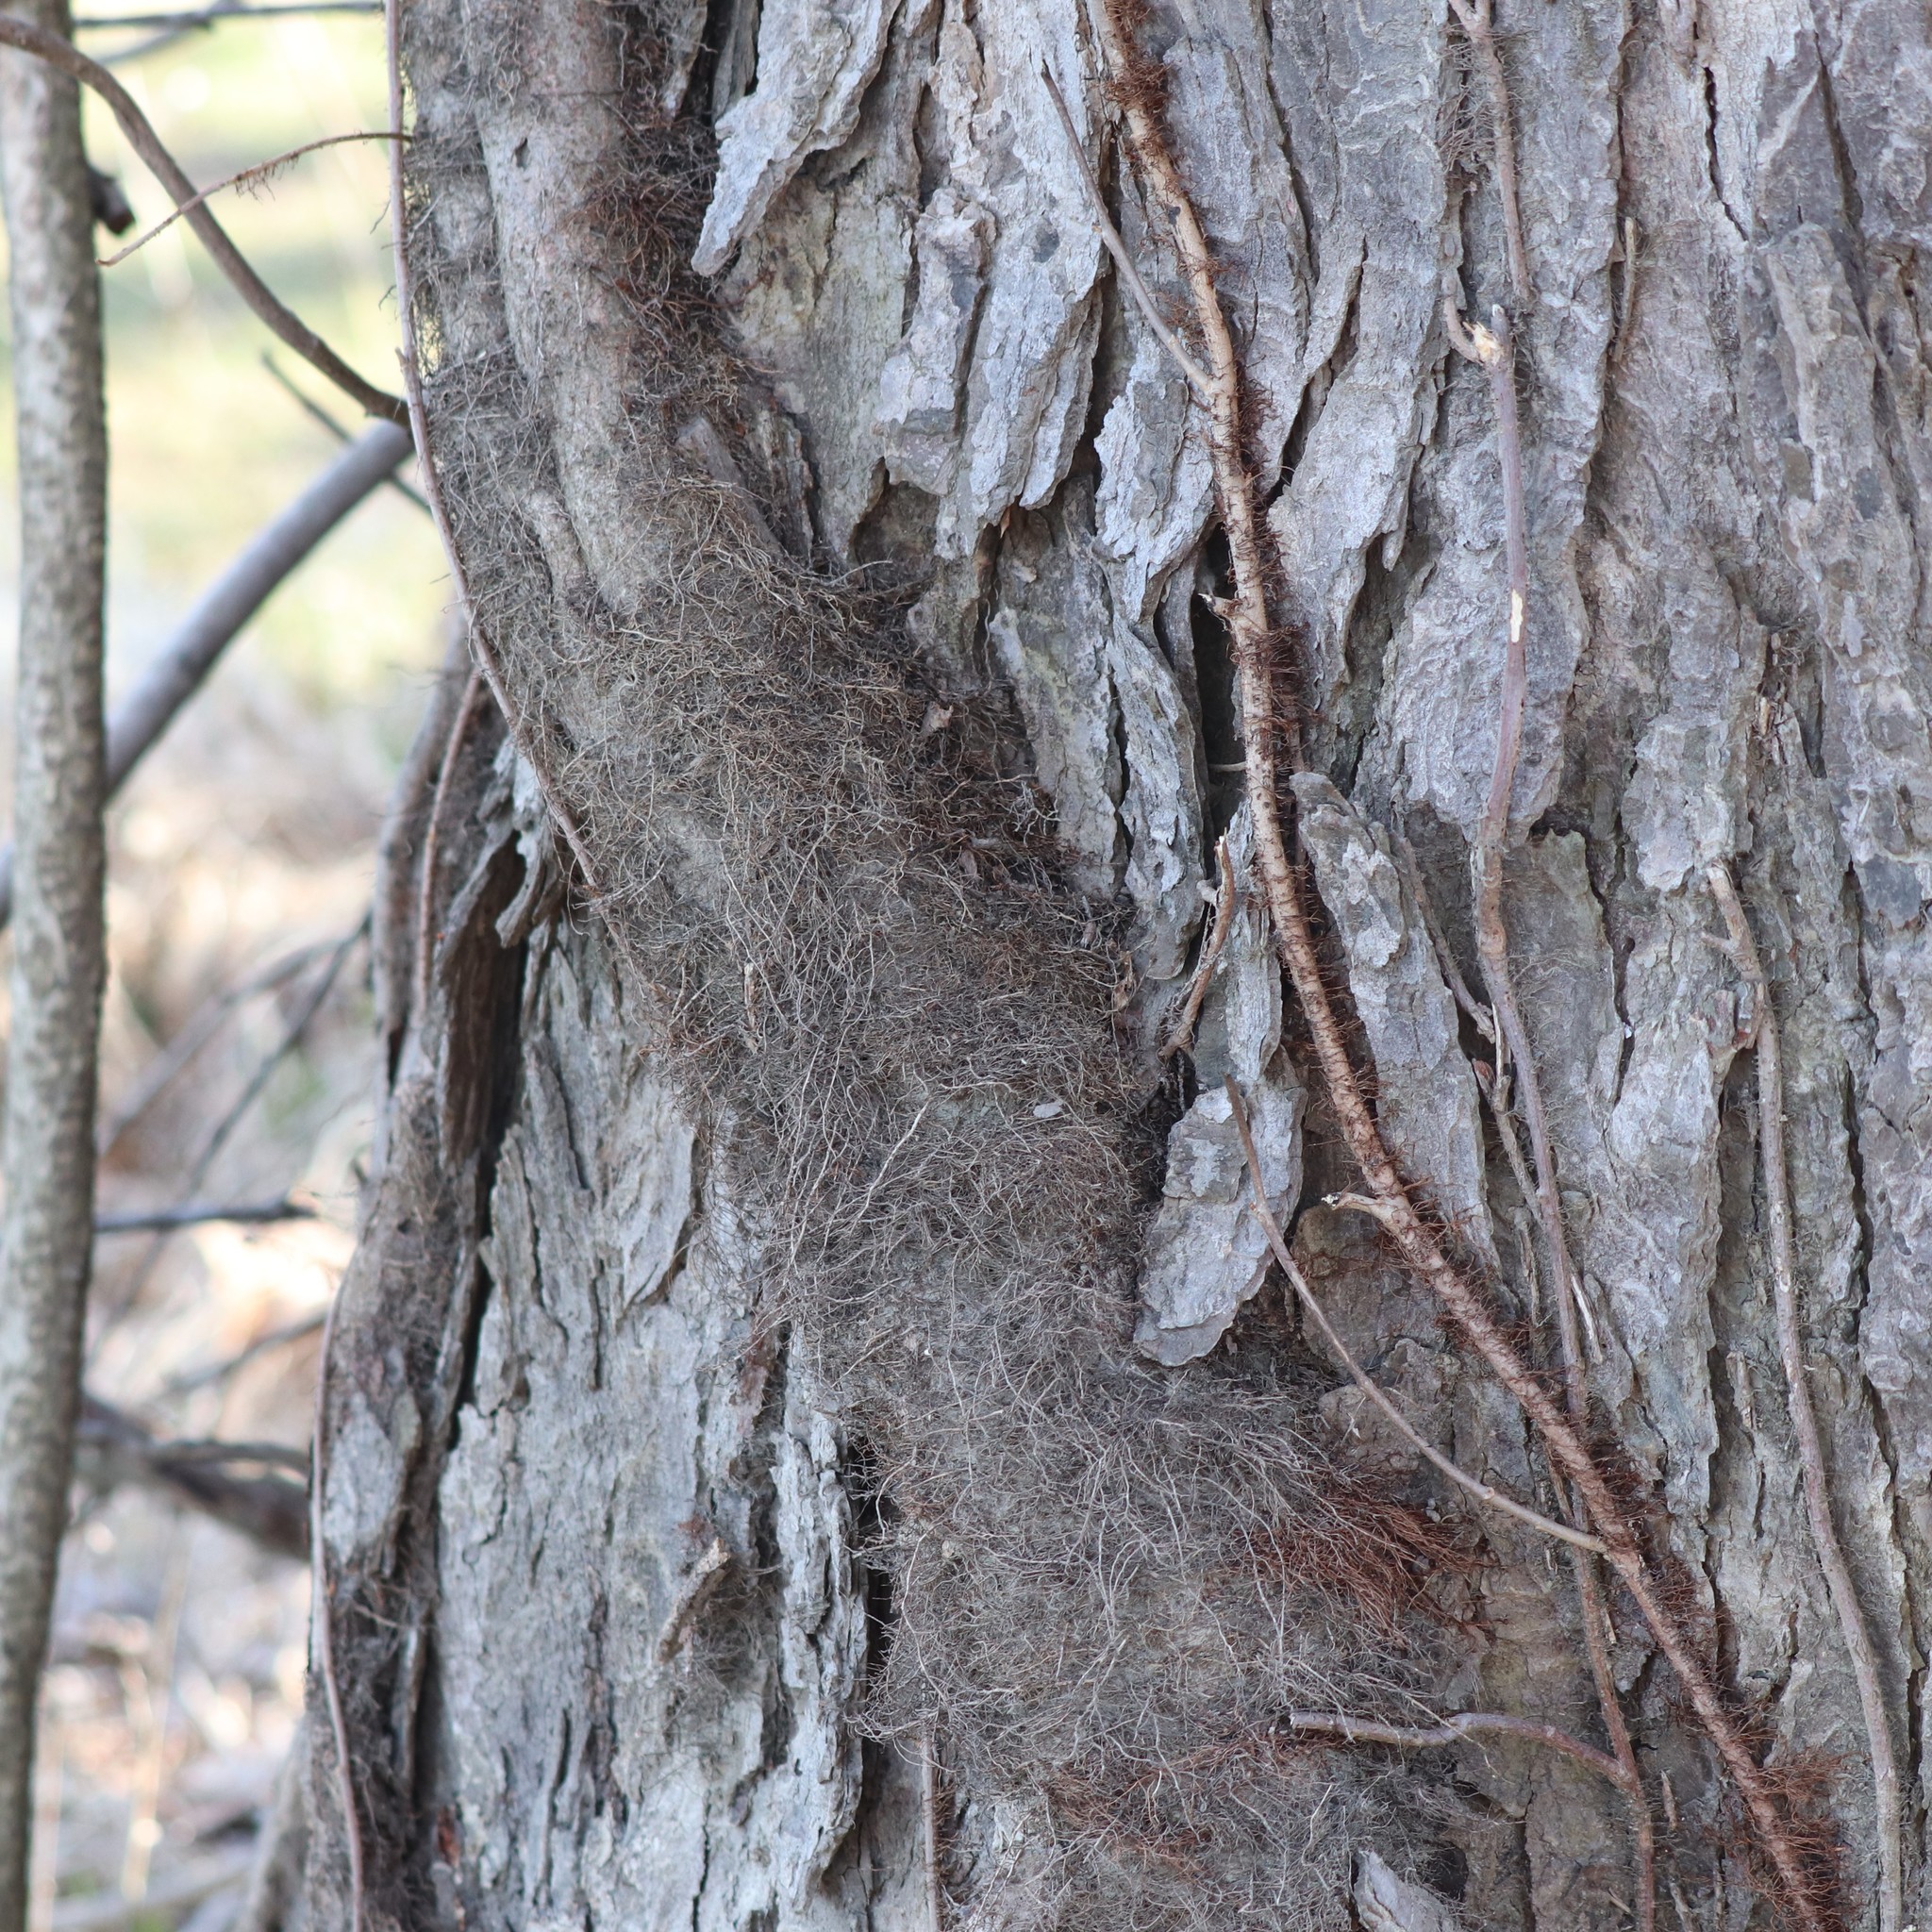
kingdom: Plantae
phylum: Tracheophyta
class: Magnoliopsida
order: Sapindales
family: Anacardiaceae
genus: Toxicodendron
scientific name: Toxicodendron radicans
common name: Poison ivy
